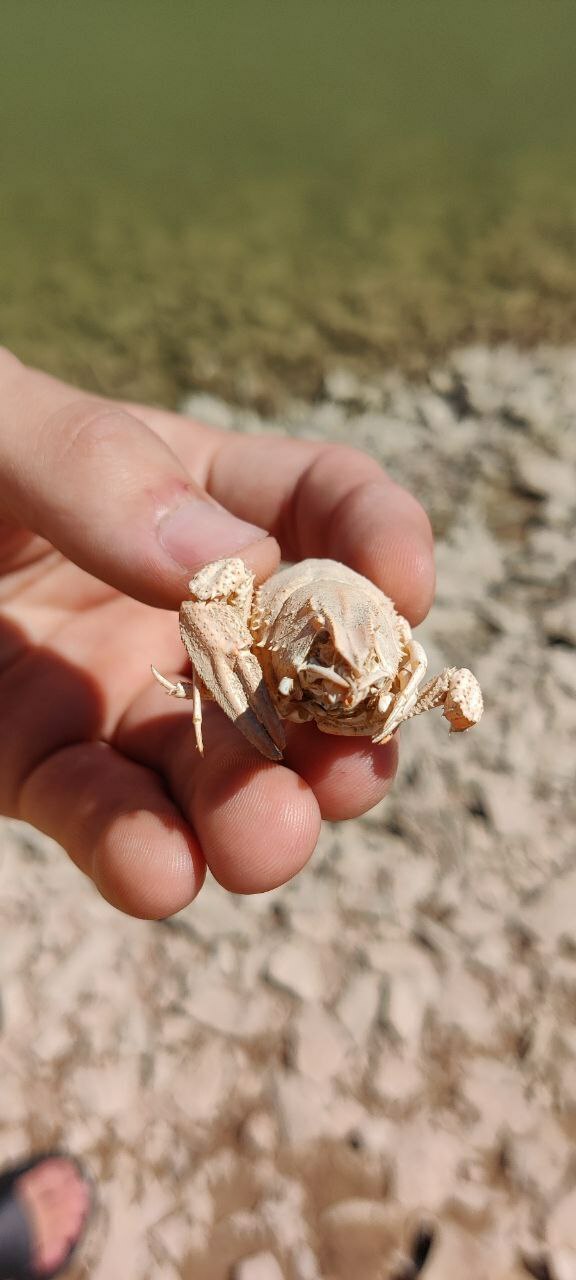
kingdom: Animalia
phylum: Arthropoda
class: Malacostraca
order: Decapoda
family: Astacidae
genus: Pontastacus
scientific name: Pontastacus leptodactylus
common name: Danube crayfish
